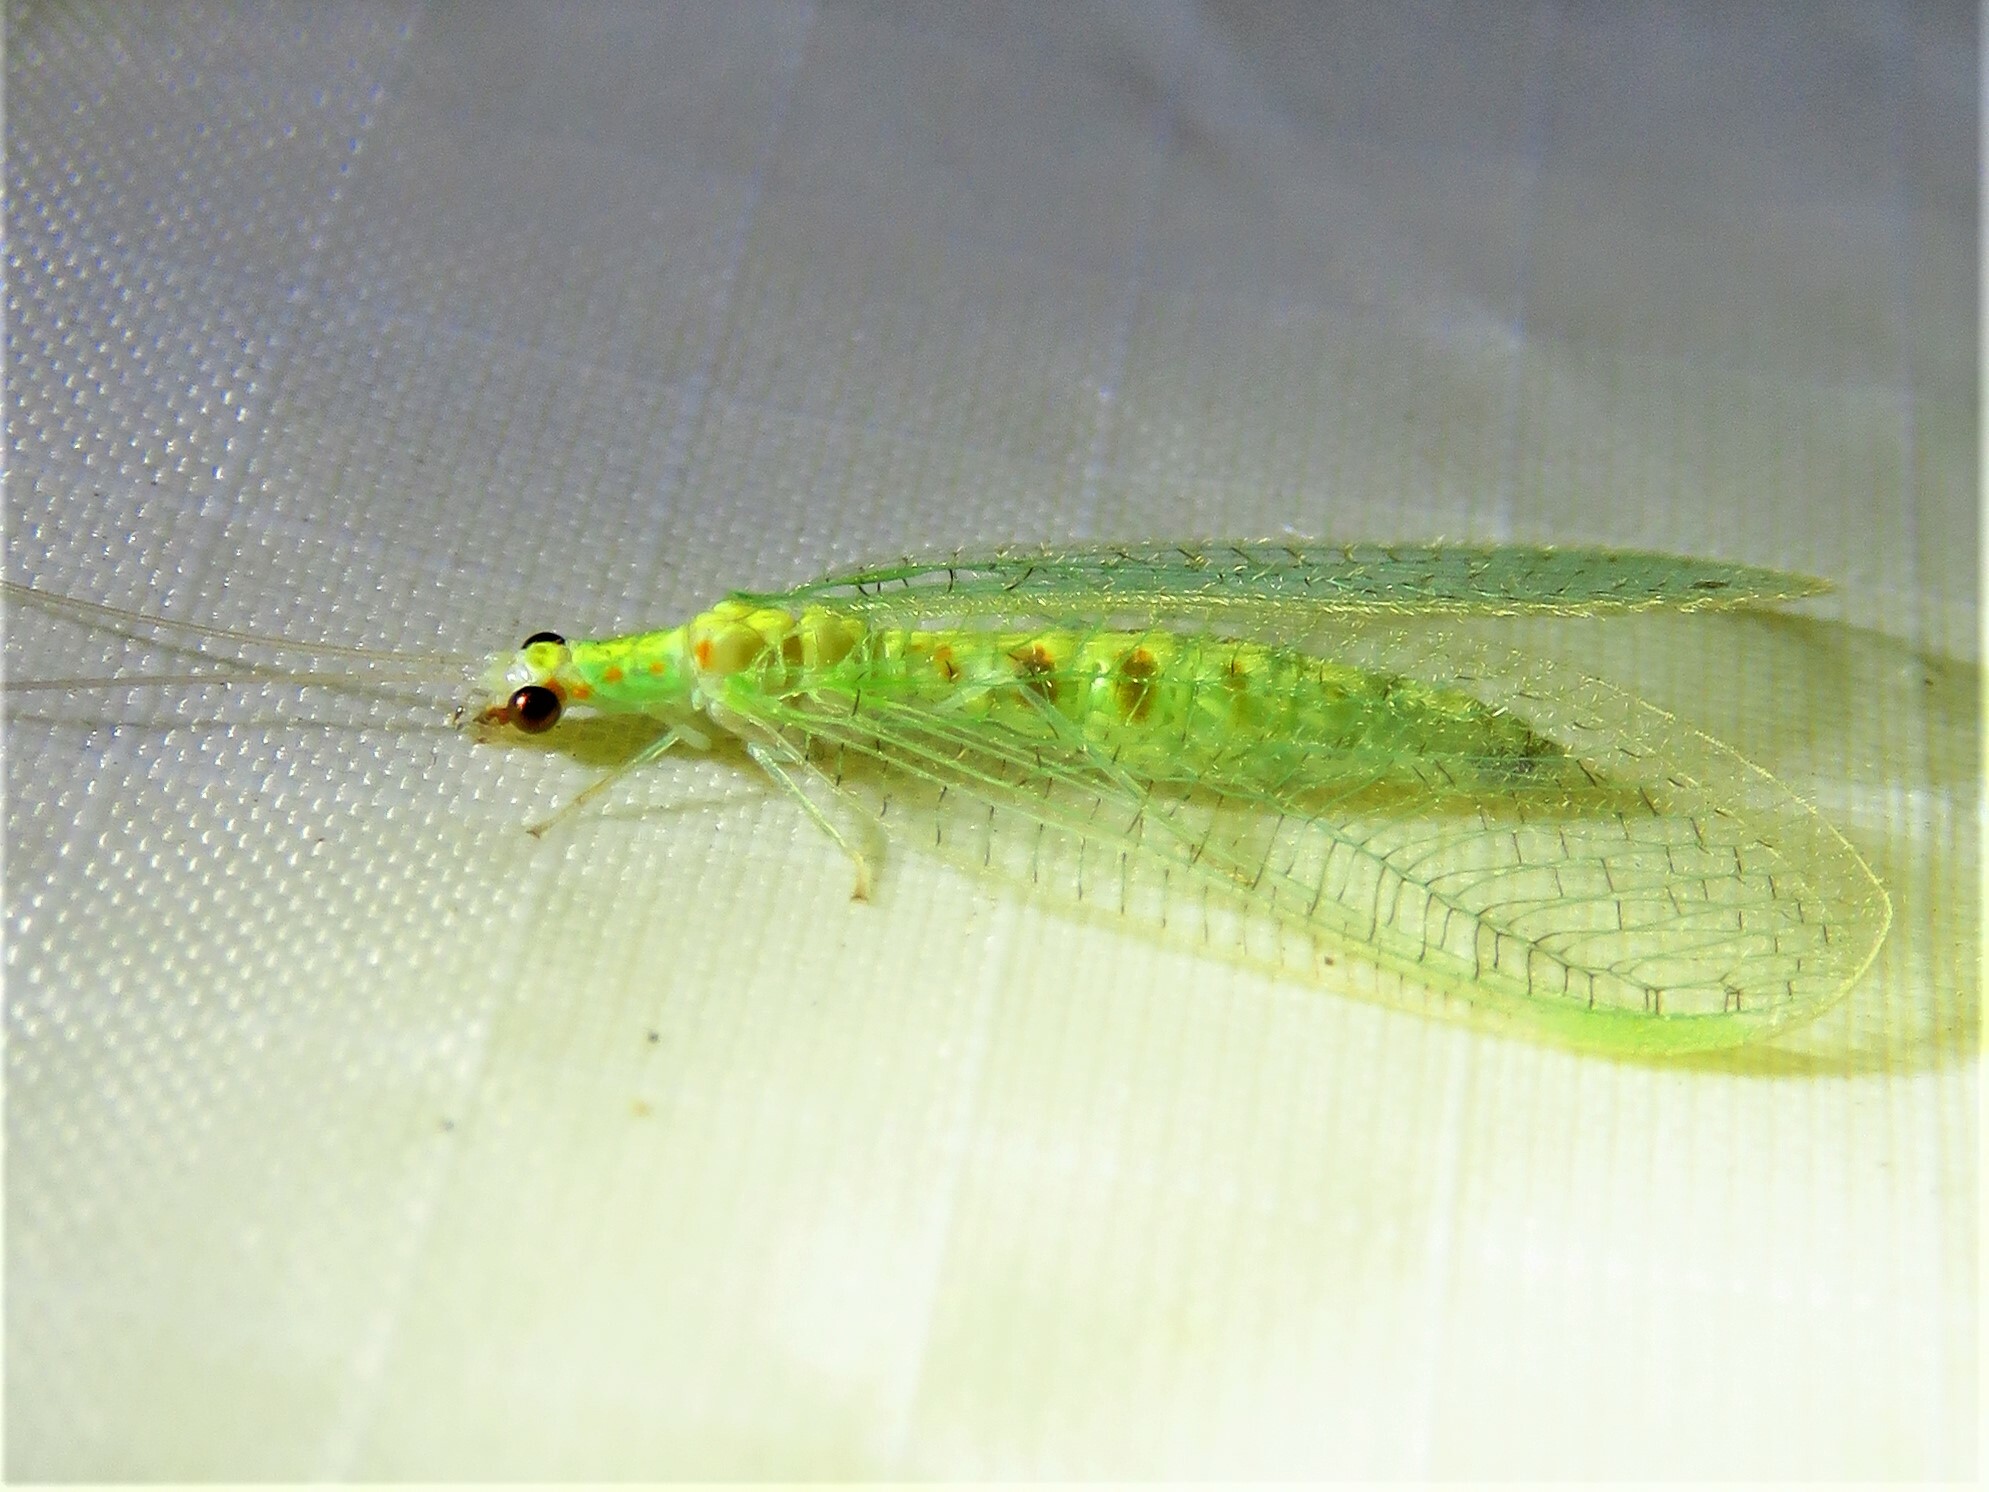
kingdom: Animalia
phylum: Arthropoda
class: Insecta
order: Neuroptera
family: Chrysopidae
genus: Chrysopa
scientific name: Chrysopa quadripunctata
